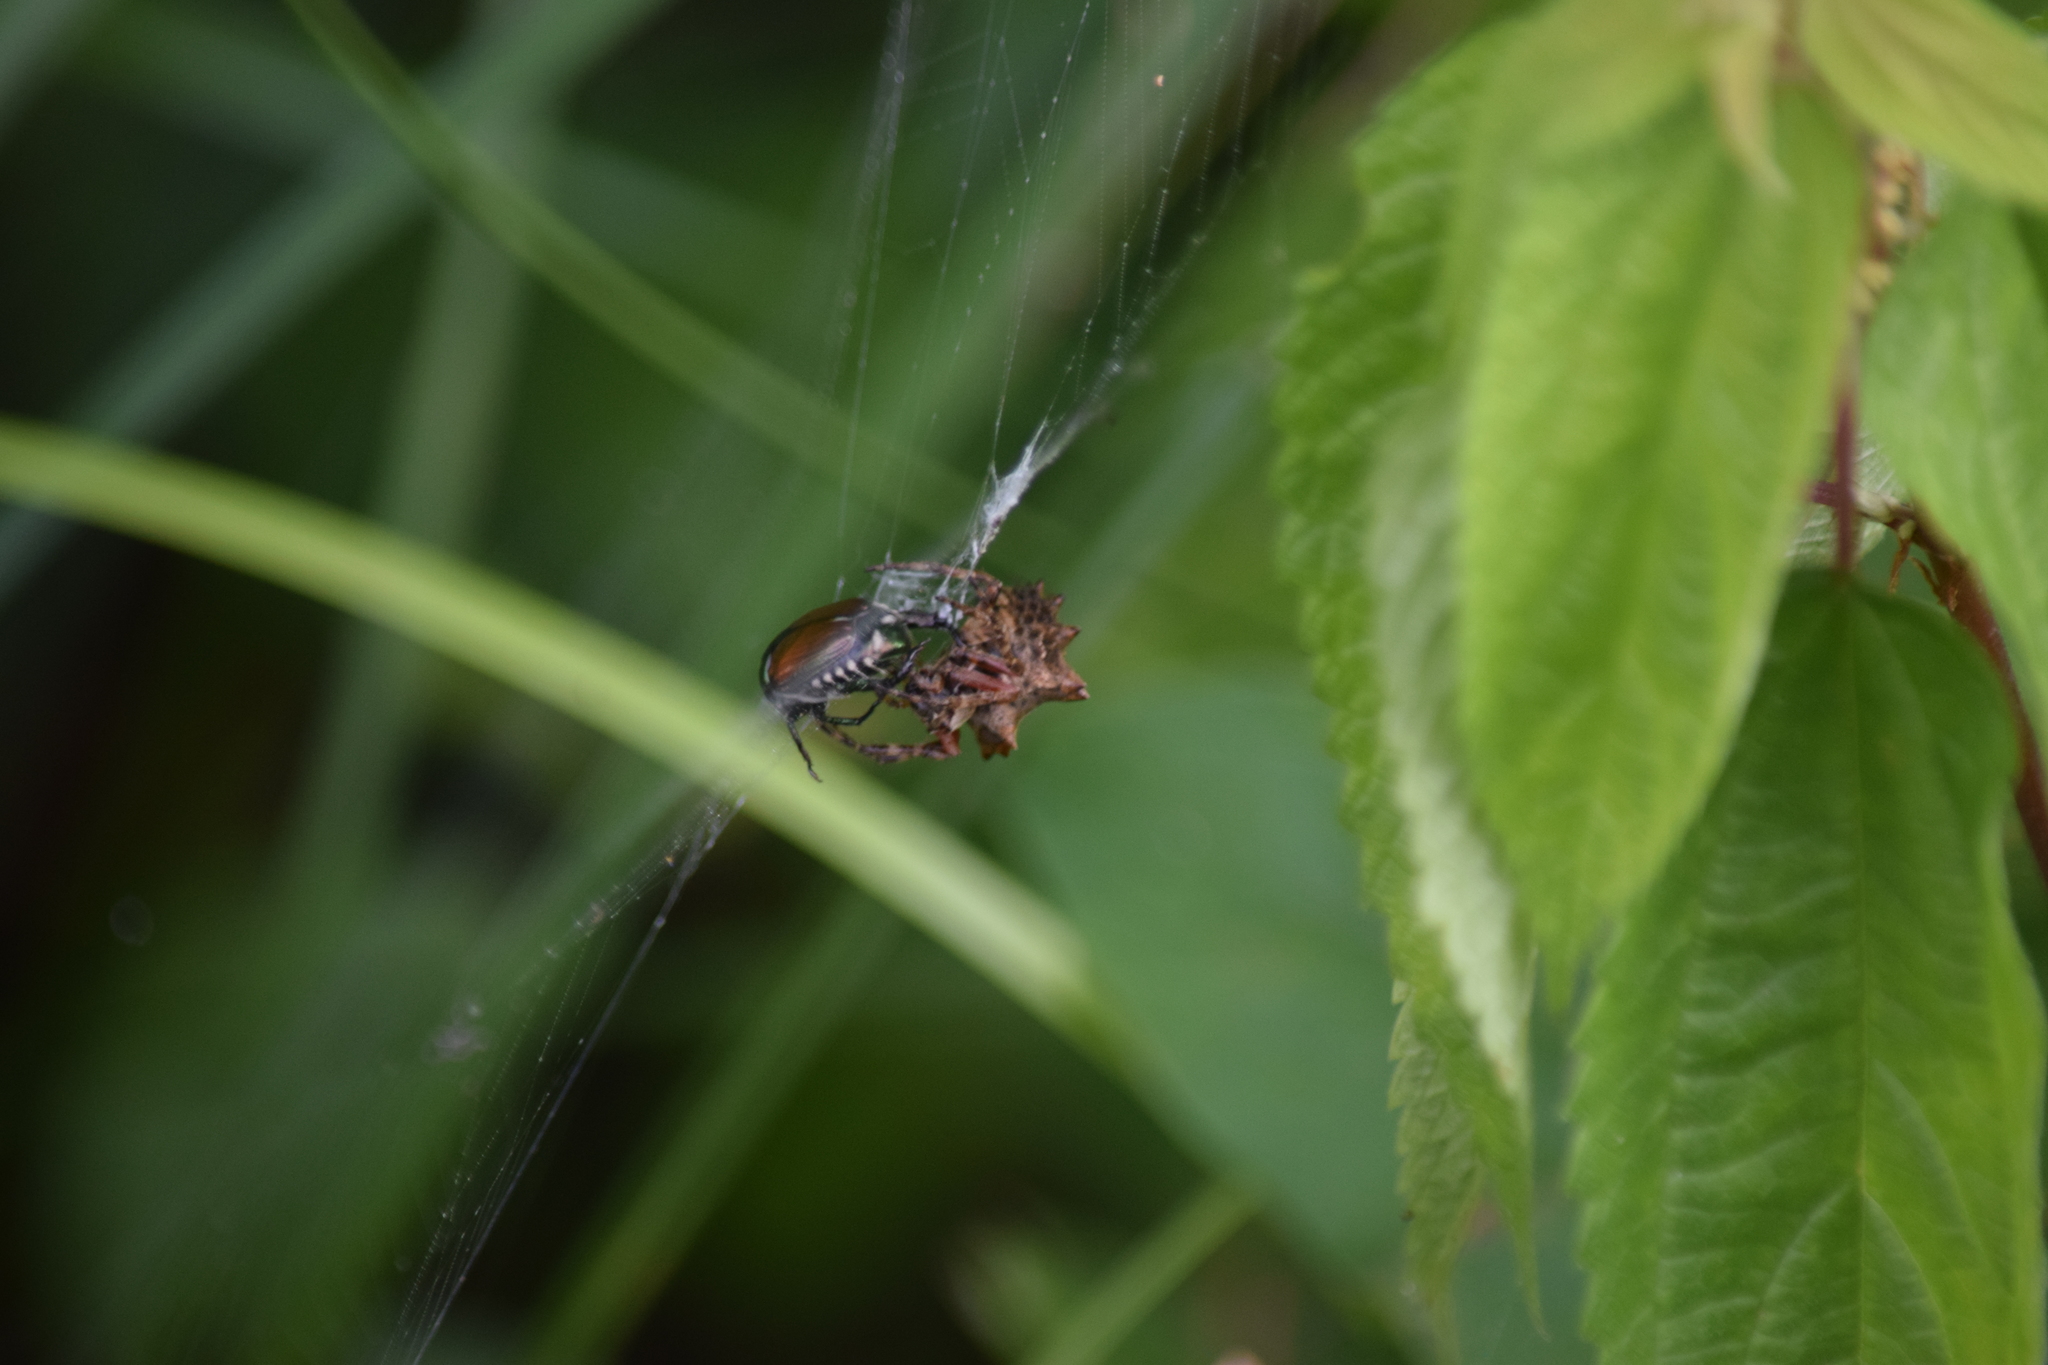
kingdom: Animalia
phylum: Arthropoda
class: Arachnida
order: Araneae
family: Araneidae
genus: Acanthepeira
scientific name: Acanthepeira stellata
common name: Starbellied orbweaver
